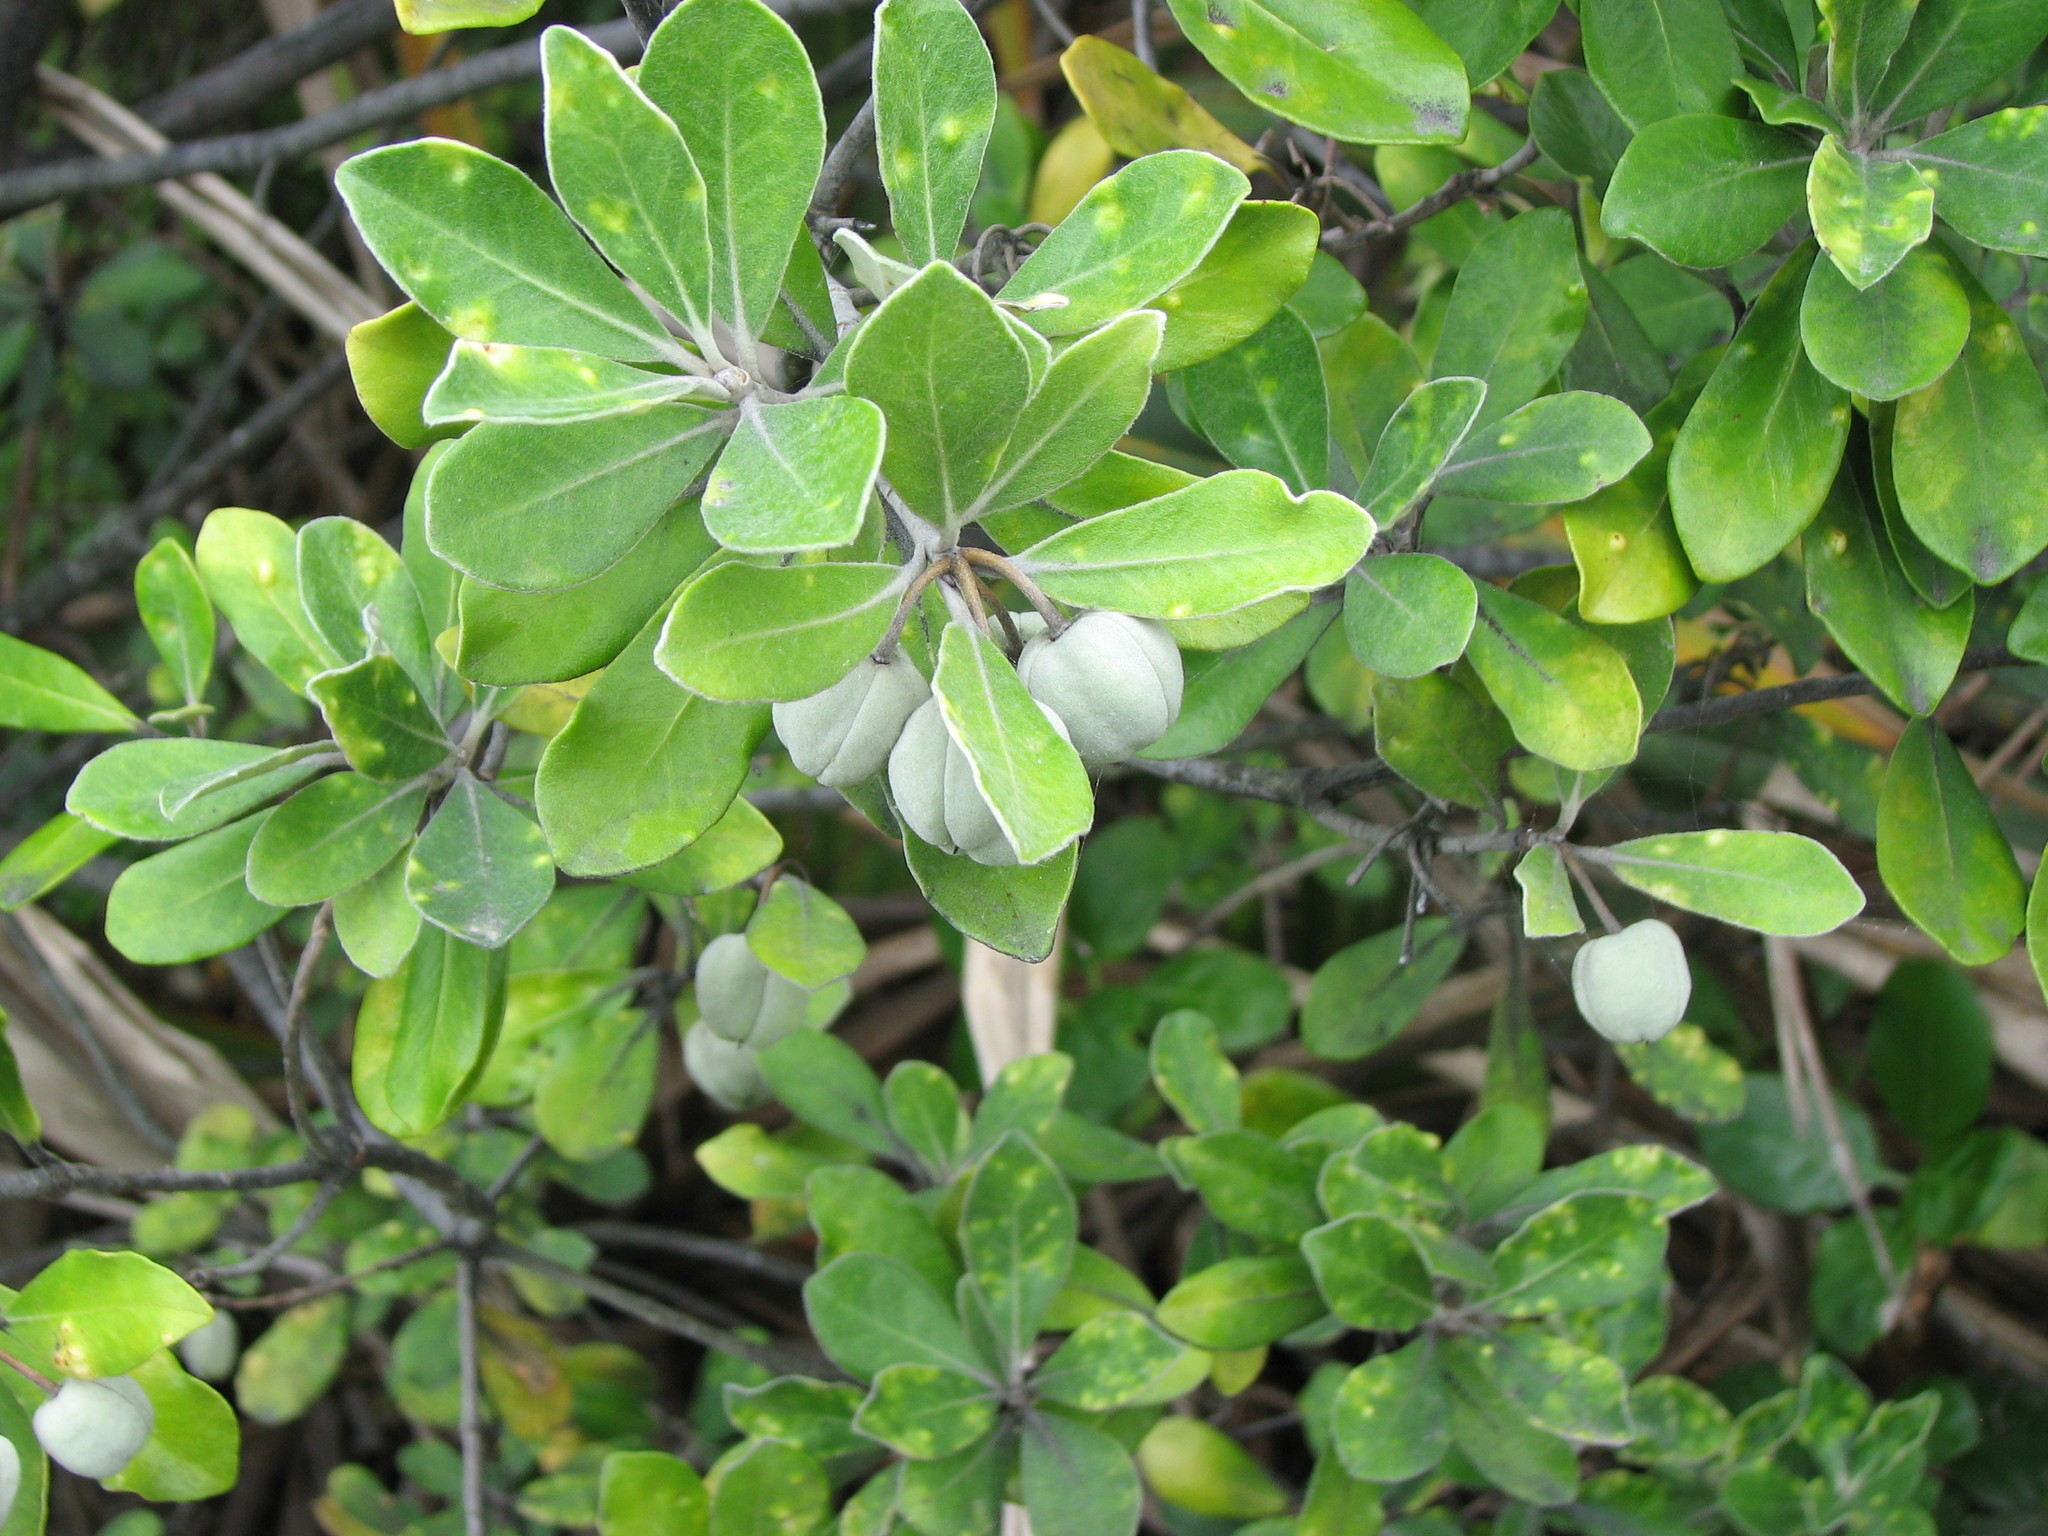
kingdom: Plantae
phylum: Tracheophyta
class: Magnoliopsida
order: Apiales
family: Pittosporaceae
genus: Pittosporum
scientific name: Pittosporum crassifolium
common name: Karo
